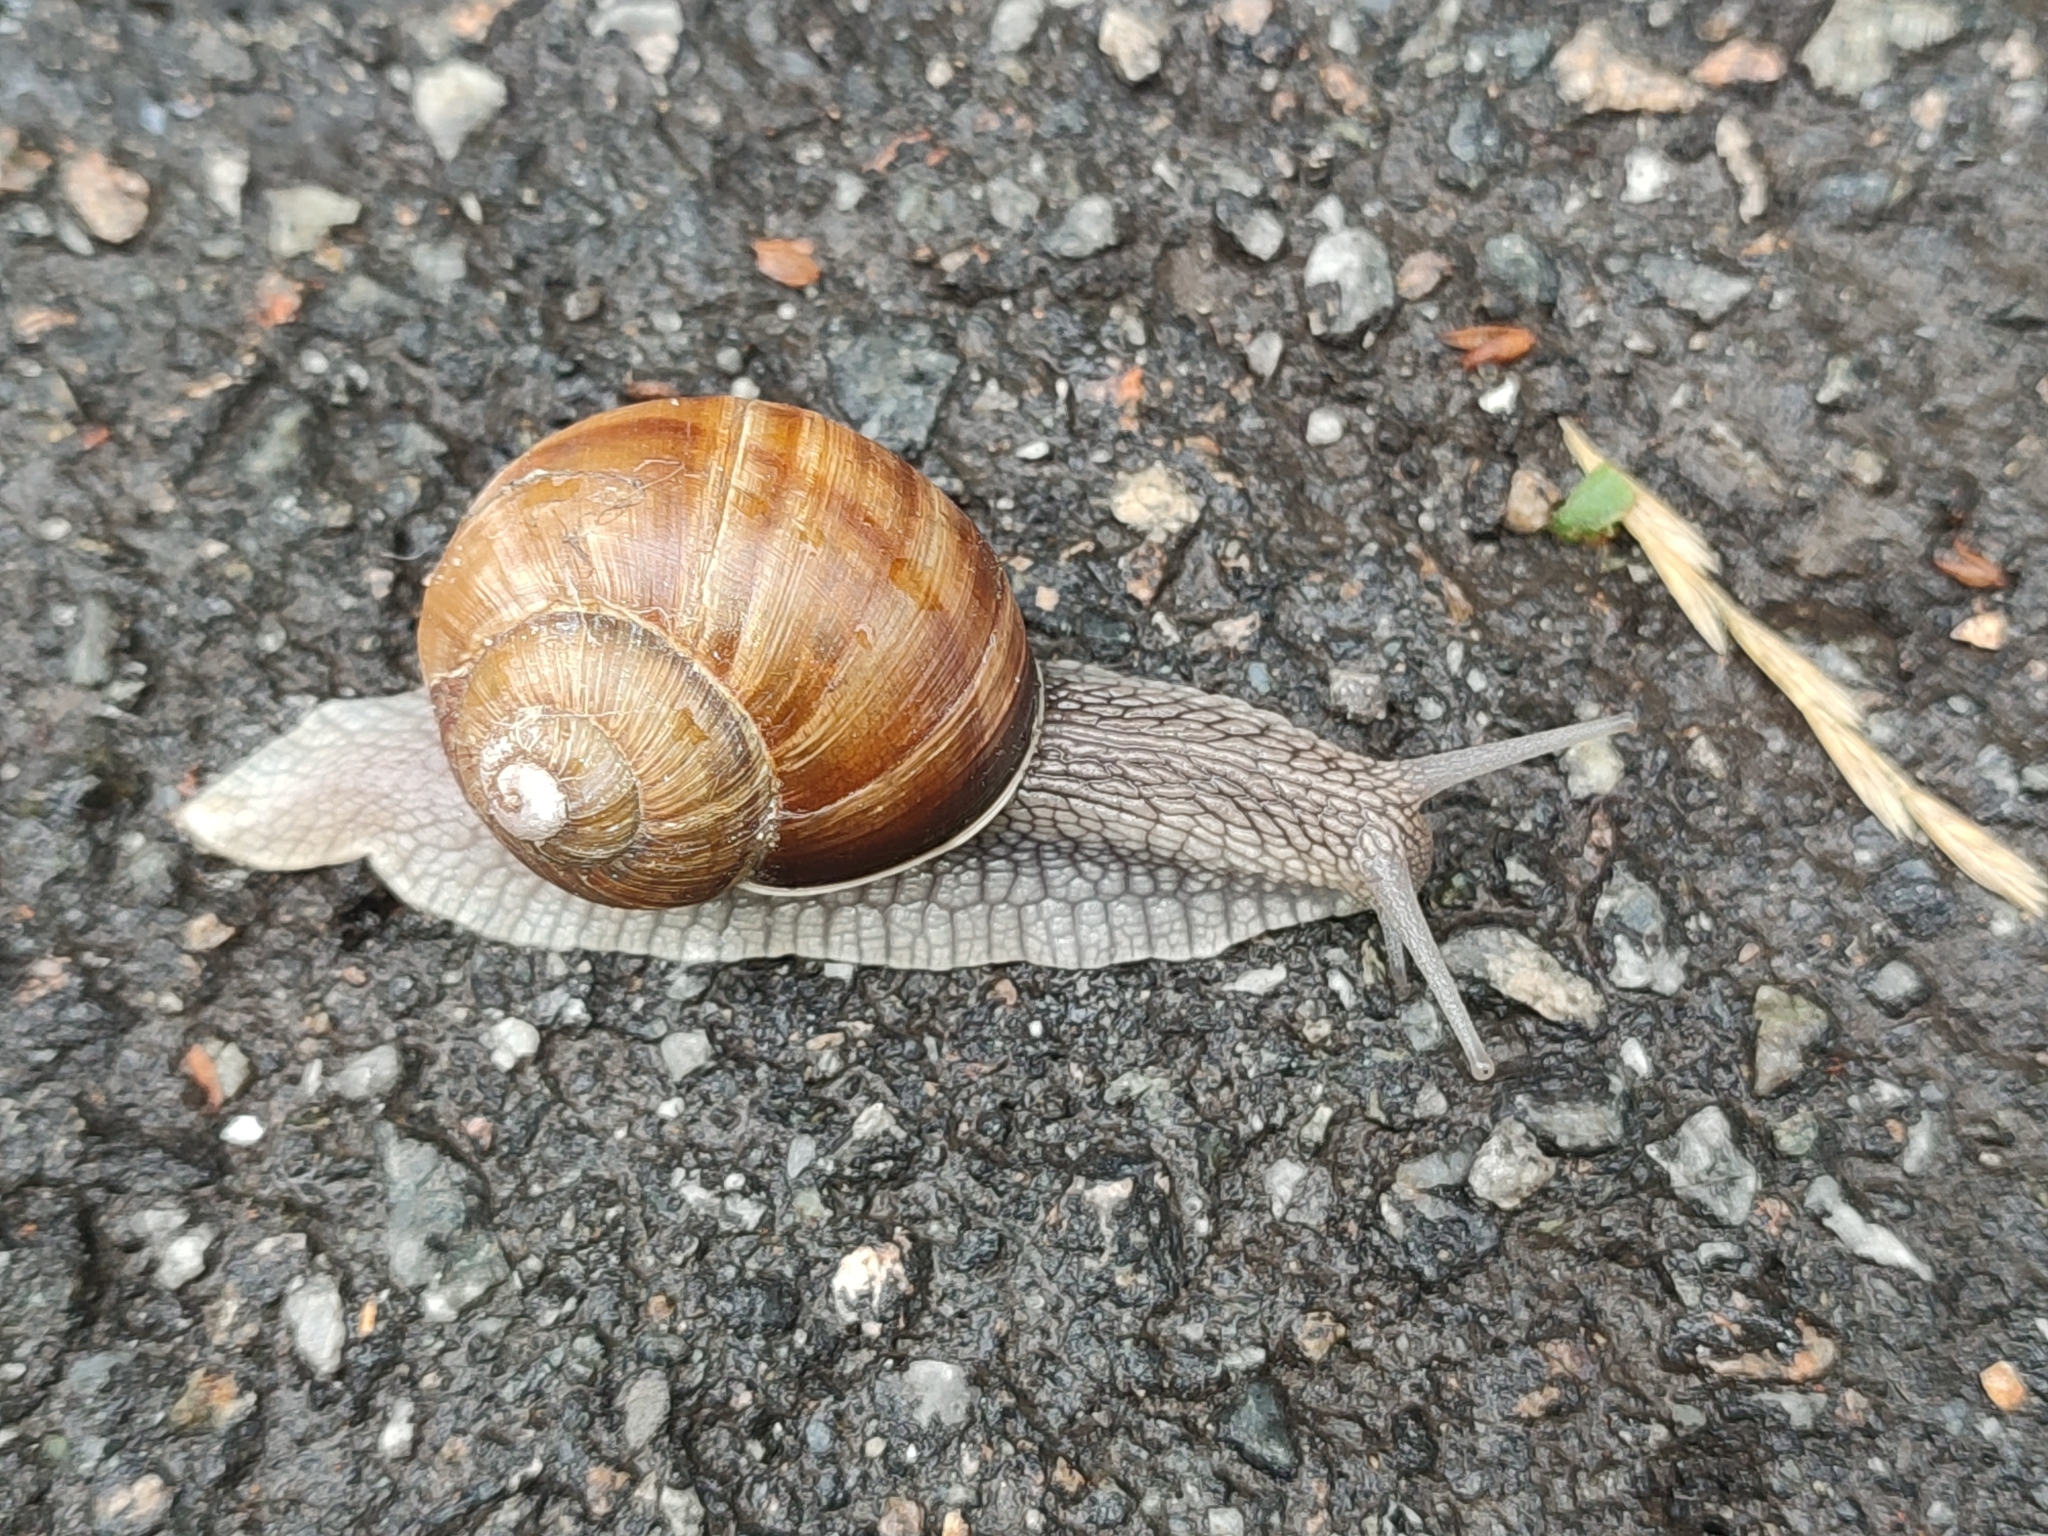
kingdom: Animalia
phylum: Mollusca
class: Gastropoda
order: Stylommatophora
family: Helicidae
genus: Helix
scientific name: Helix pomatia
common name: Roman snail
